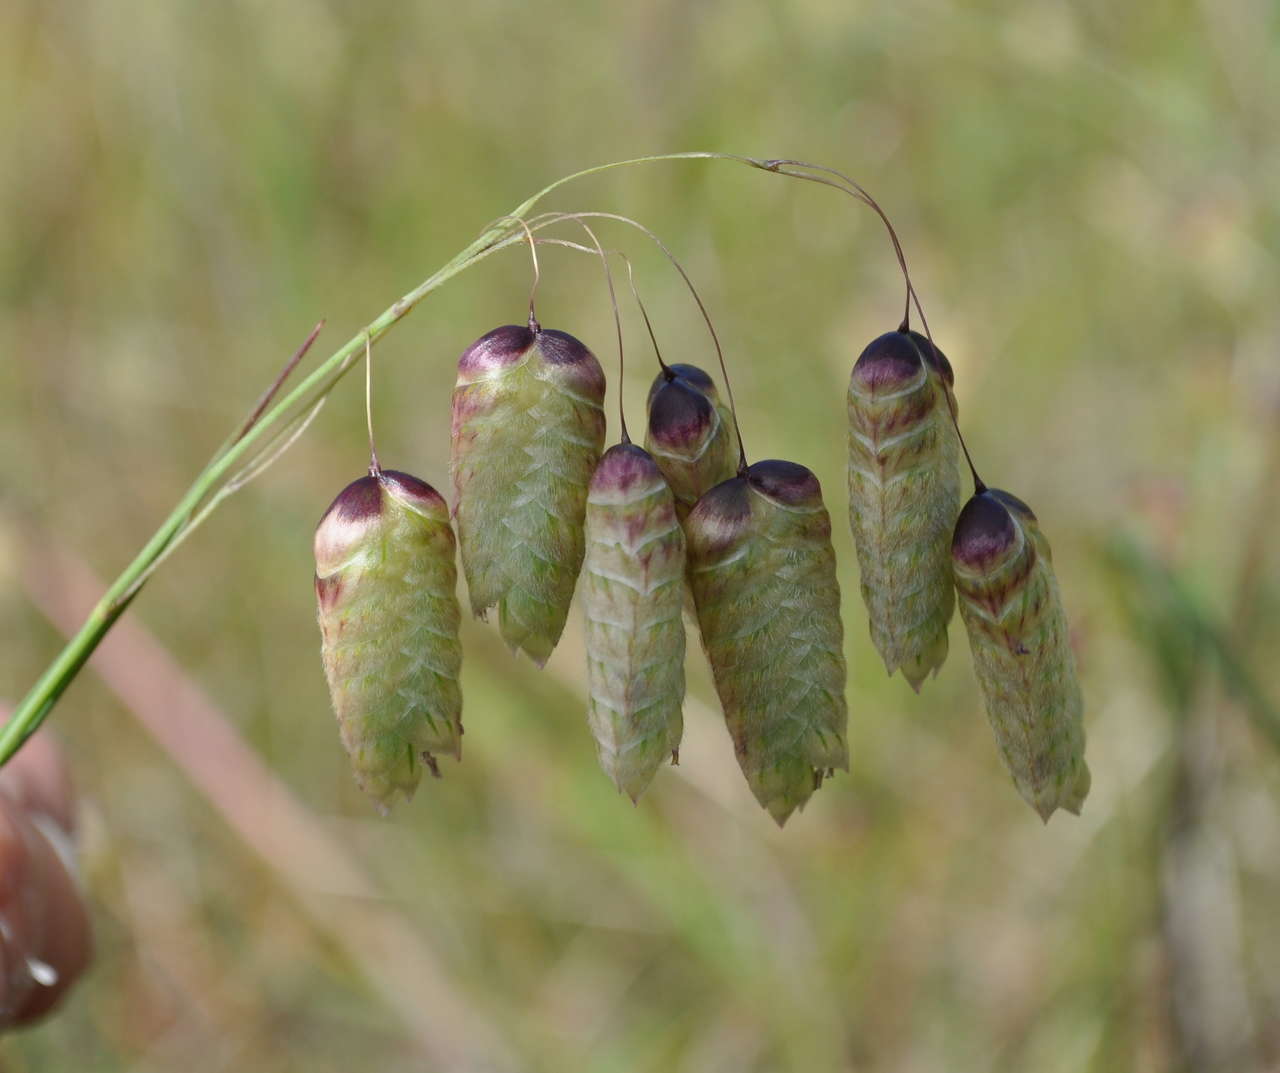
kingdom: Plantae
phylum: Tracheophyta
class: Liliopsida
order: Poales
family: Poaceae
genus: Briza
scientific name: Briza maxima
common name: Big quakinggrass
